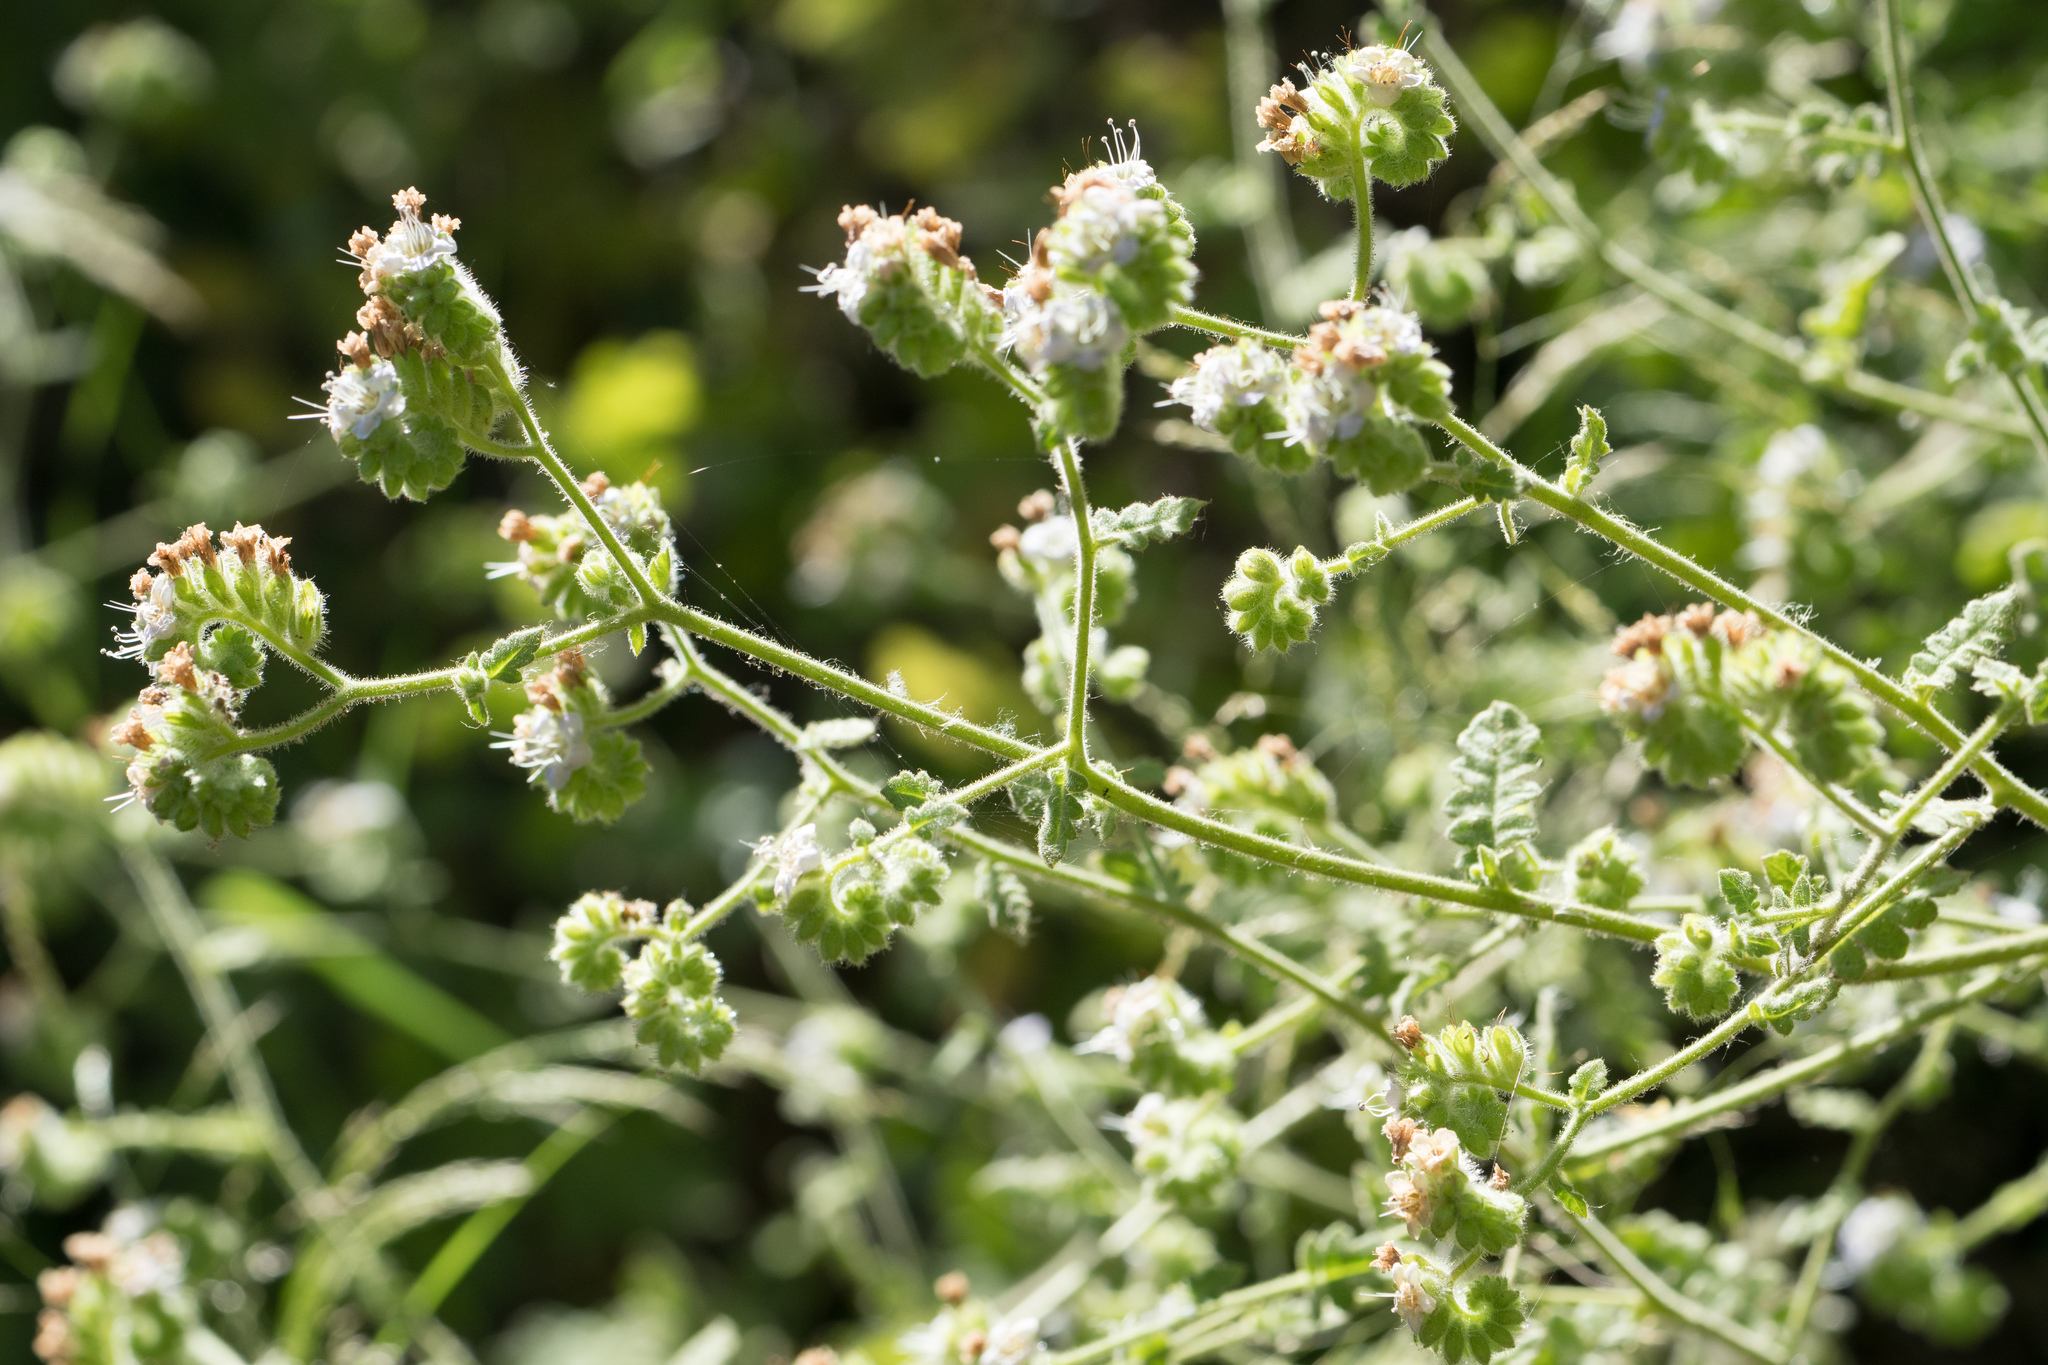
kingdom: Plantae
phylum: Tracheophyta
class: Magnoliopsida
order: Boraginales
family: Hydrophyllaceae
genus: Phacelia
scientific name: Phacelia ramosissima
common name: Branching phacelia
